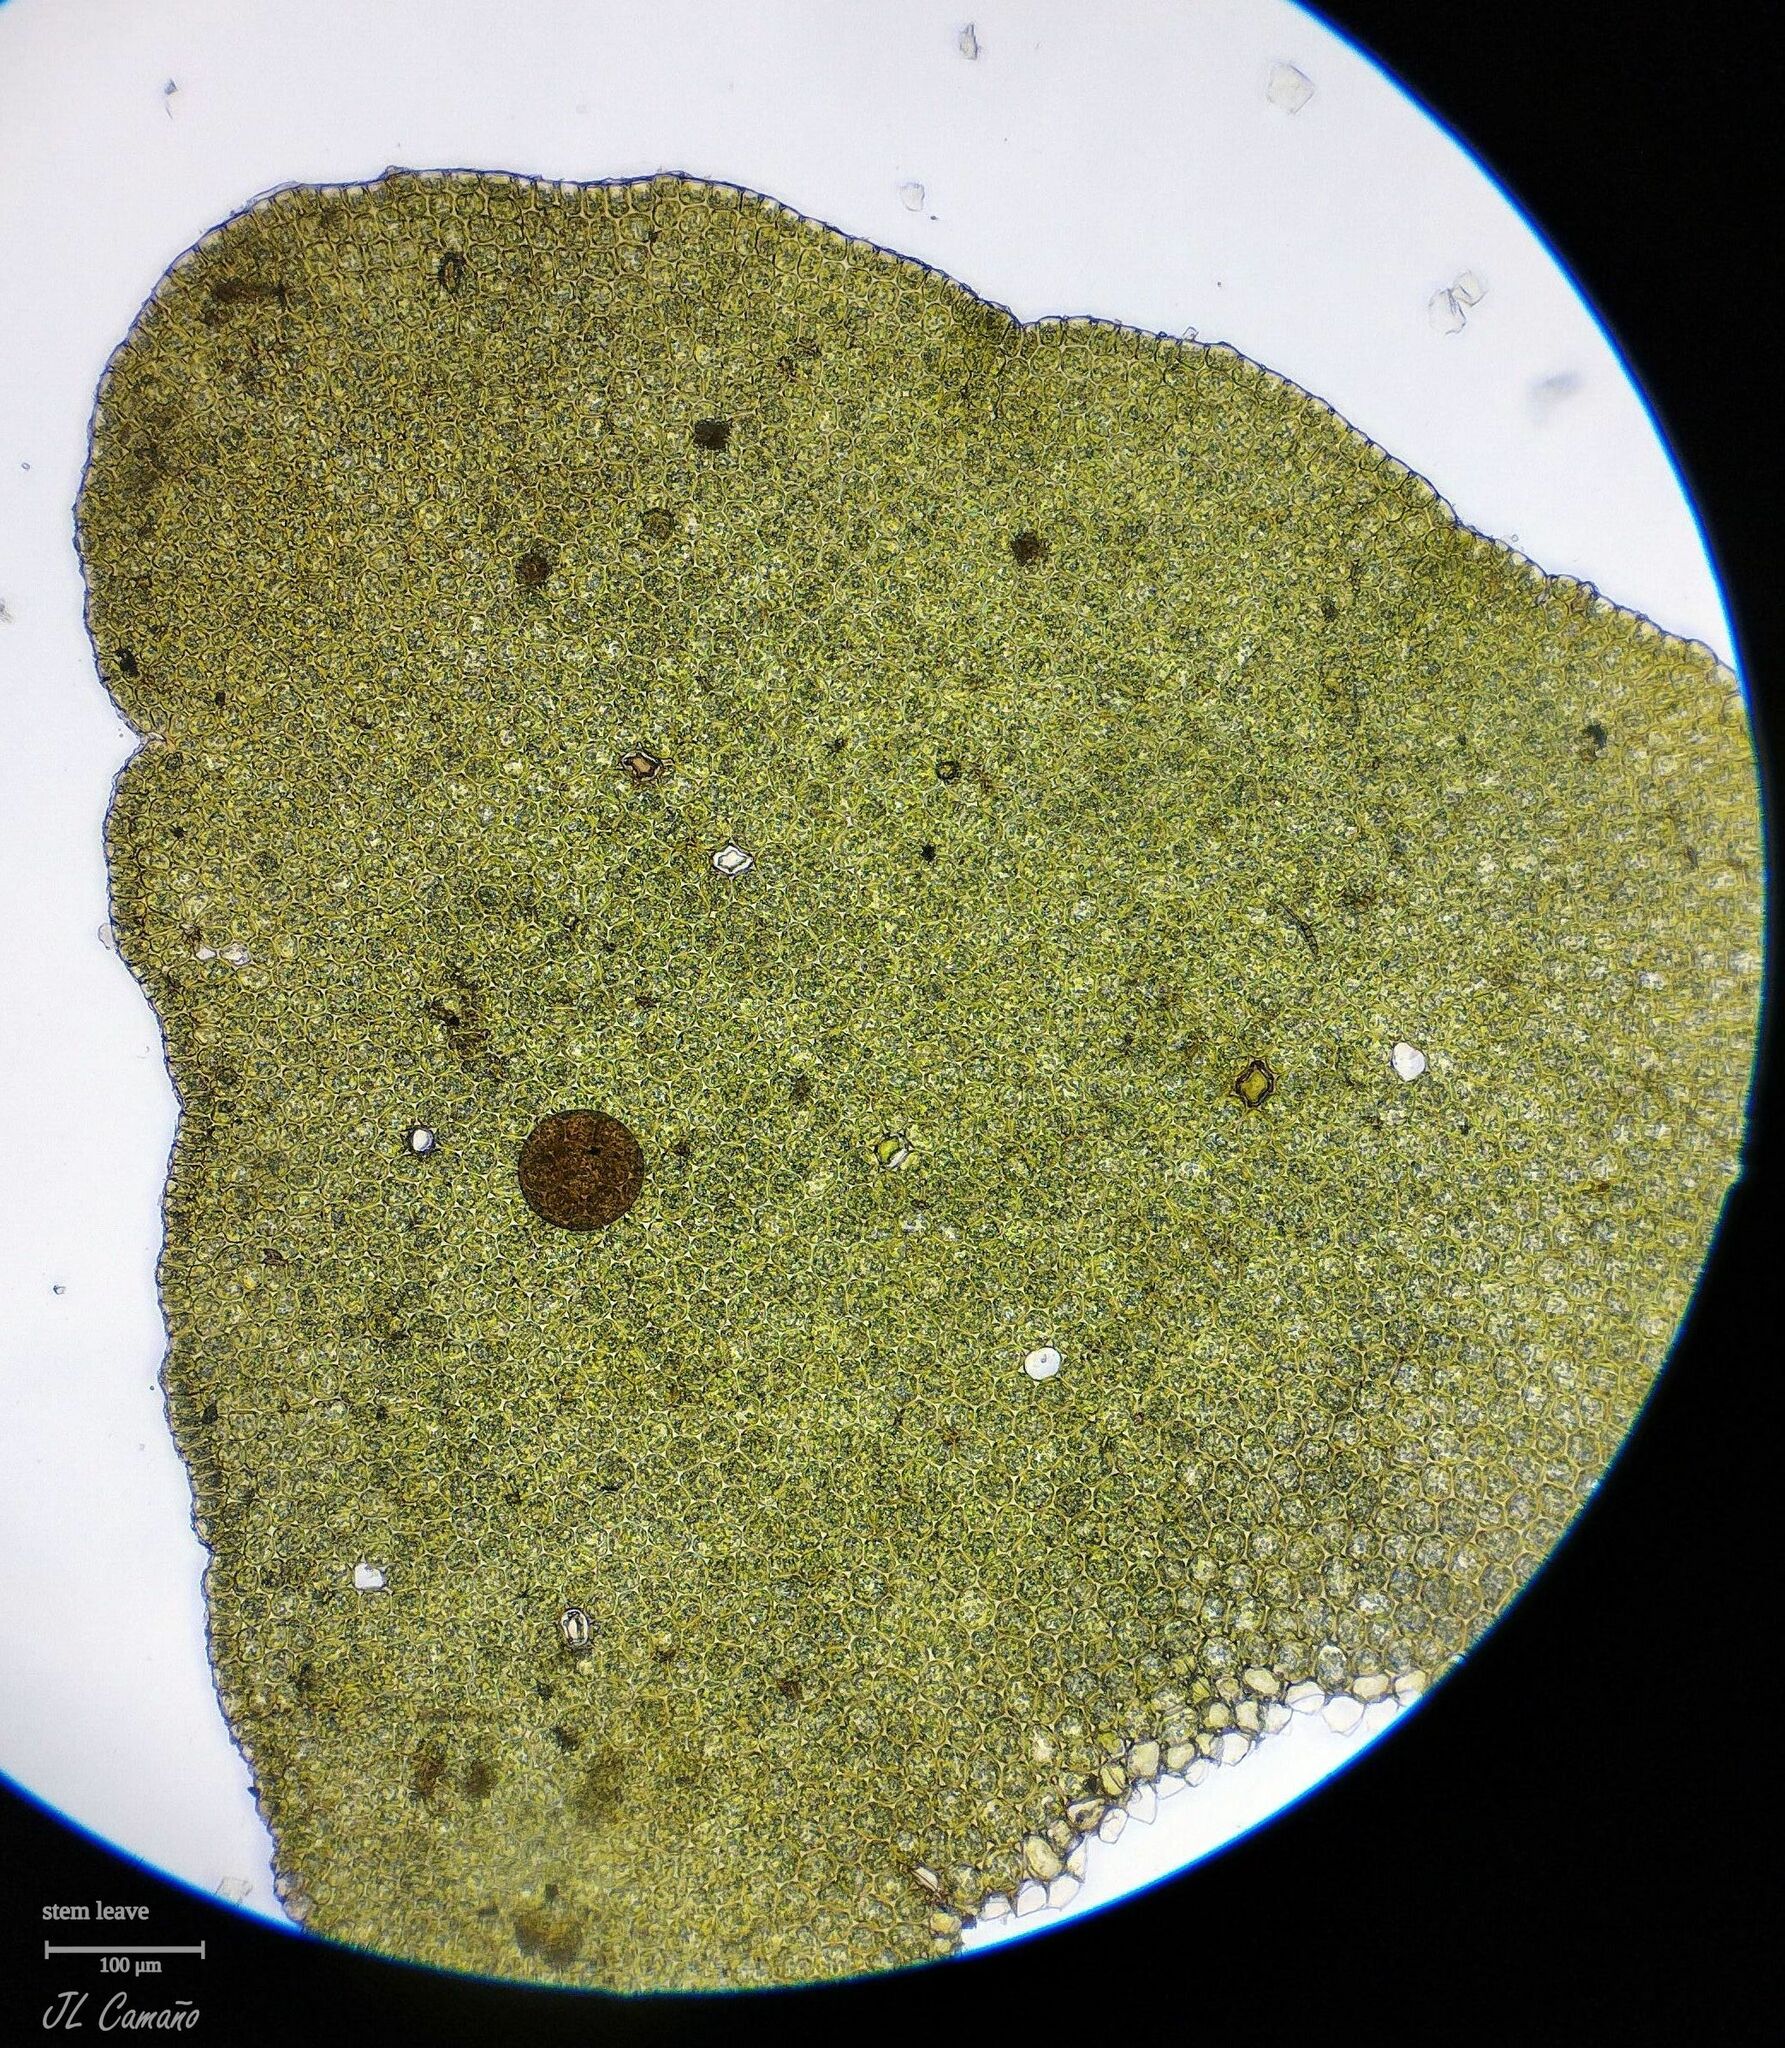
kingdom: Plantae
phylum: Marchantiophyta
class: Jungermanniopsida
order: Porellales
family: Porellaceae
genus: Porella
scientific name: Porella platyphylla
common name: Wall scalewort
